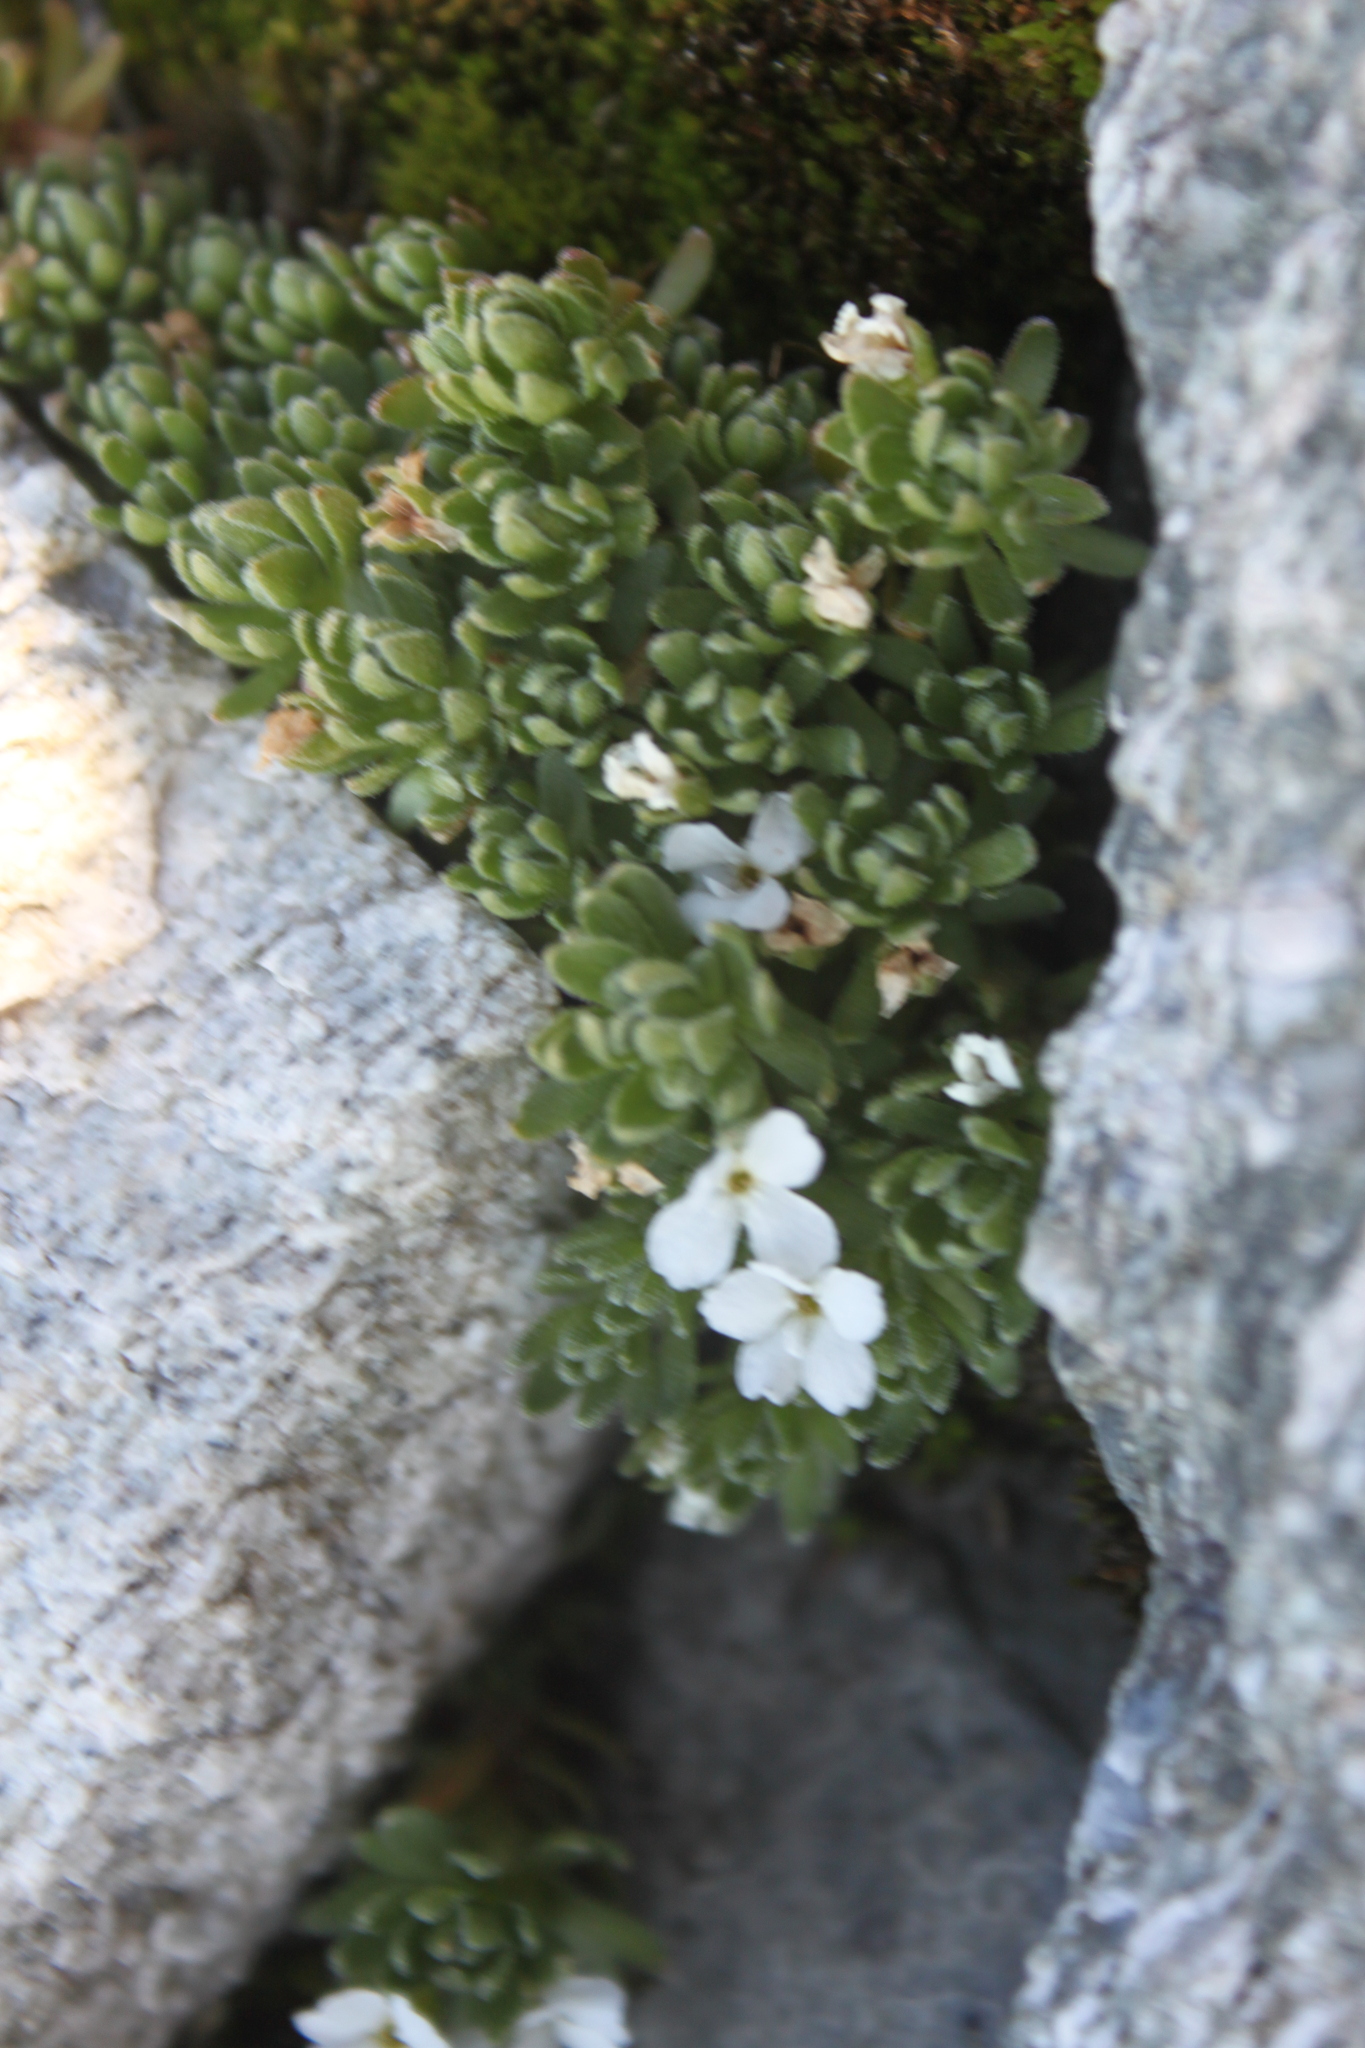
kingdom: Plantae
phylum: Tracheophyta
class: Magnoliopsida
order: Ericales
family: Primulaceae
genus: Androsace
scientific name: Androsace alpina
